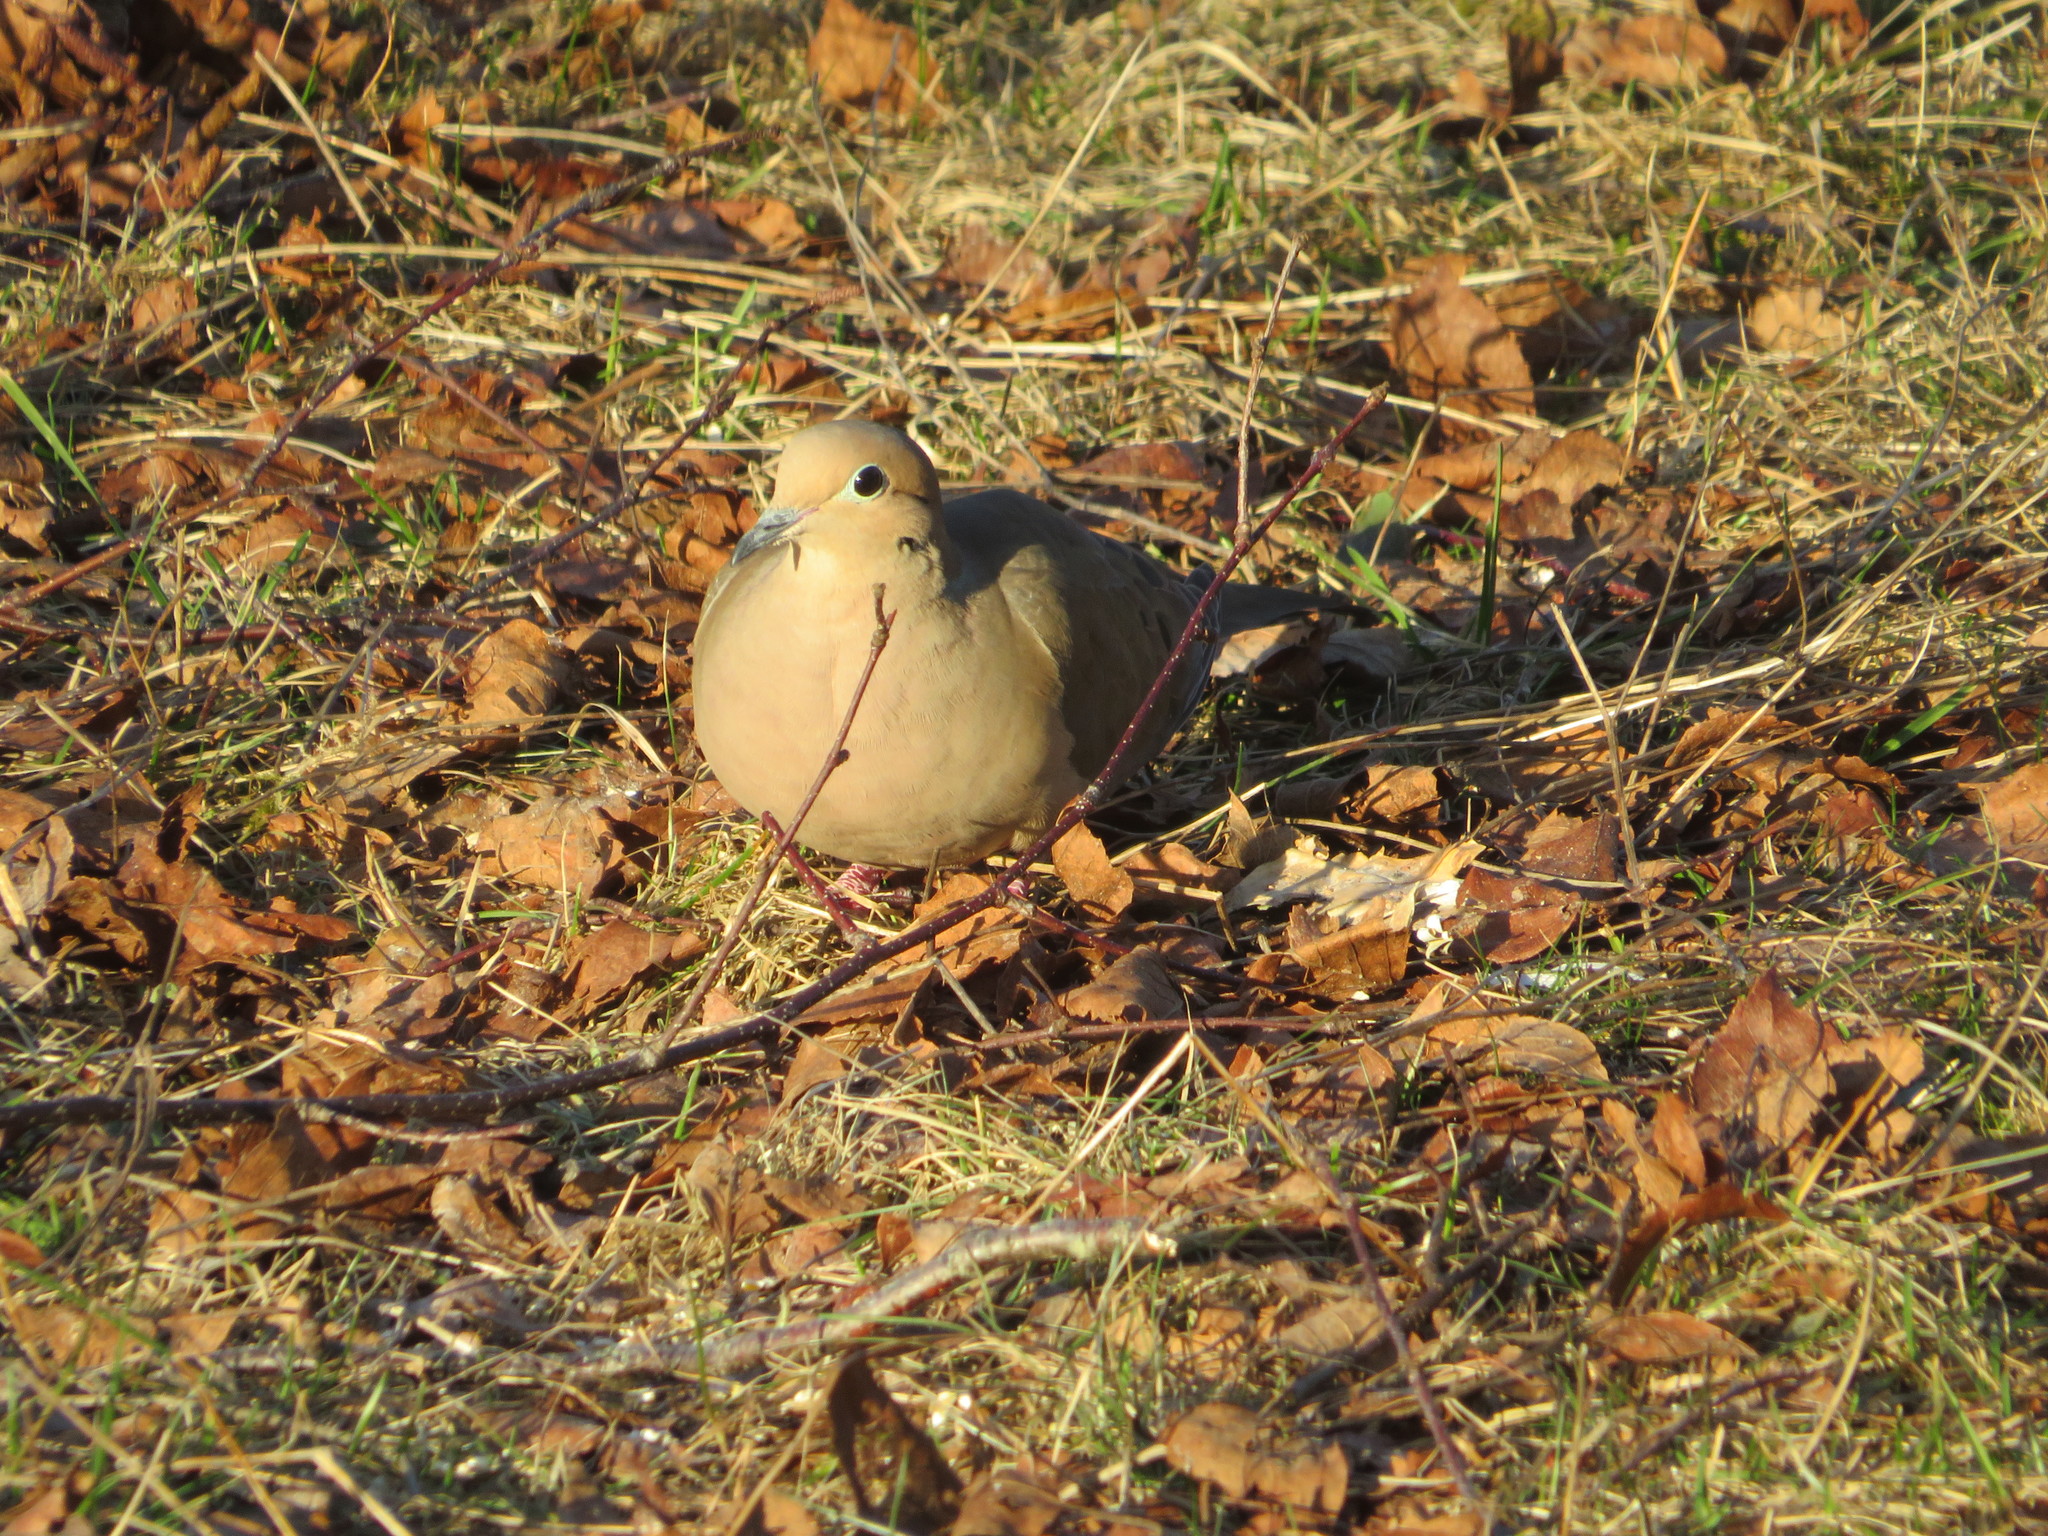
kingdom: Animalia
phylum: Chordata
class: Aves
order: Columbiformes
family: Columbidae
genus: Zenaida
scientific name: Zenaida macroura
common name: Mourning dove
